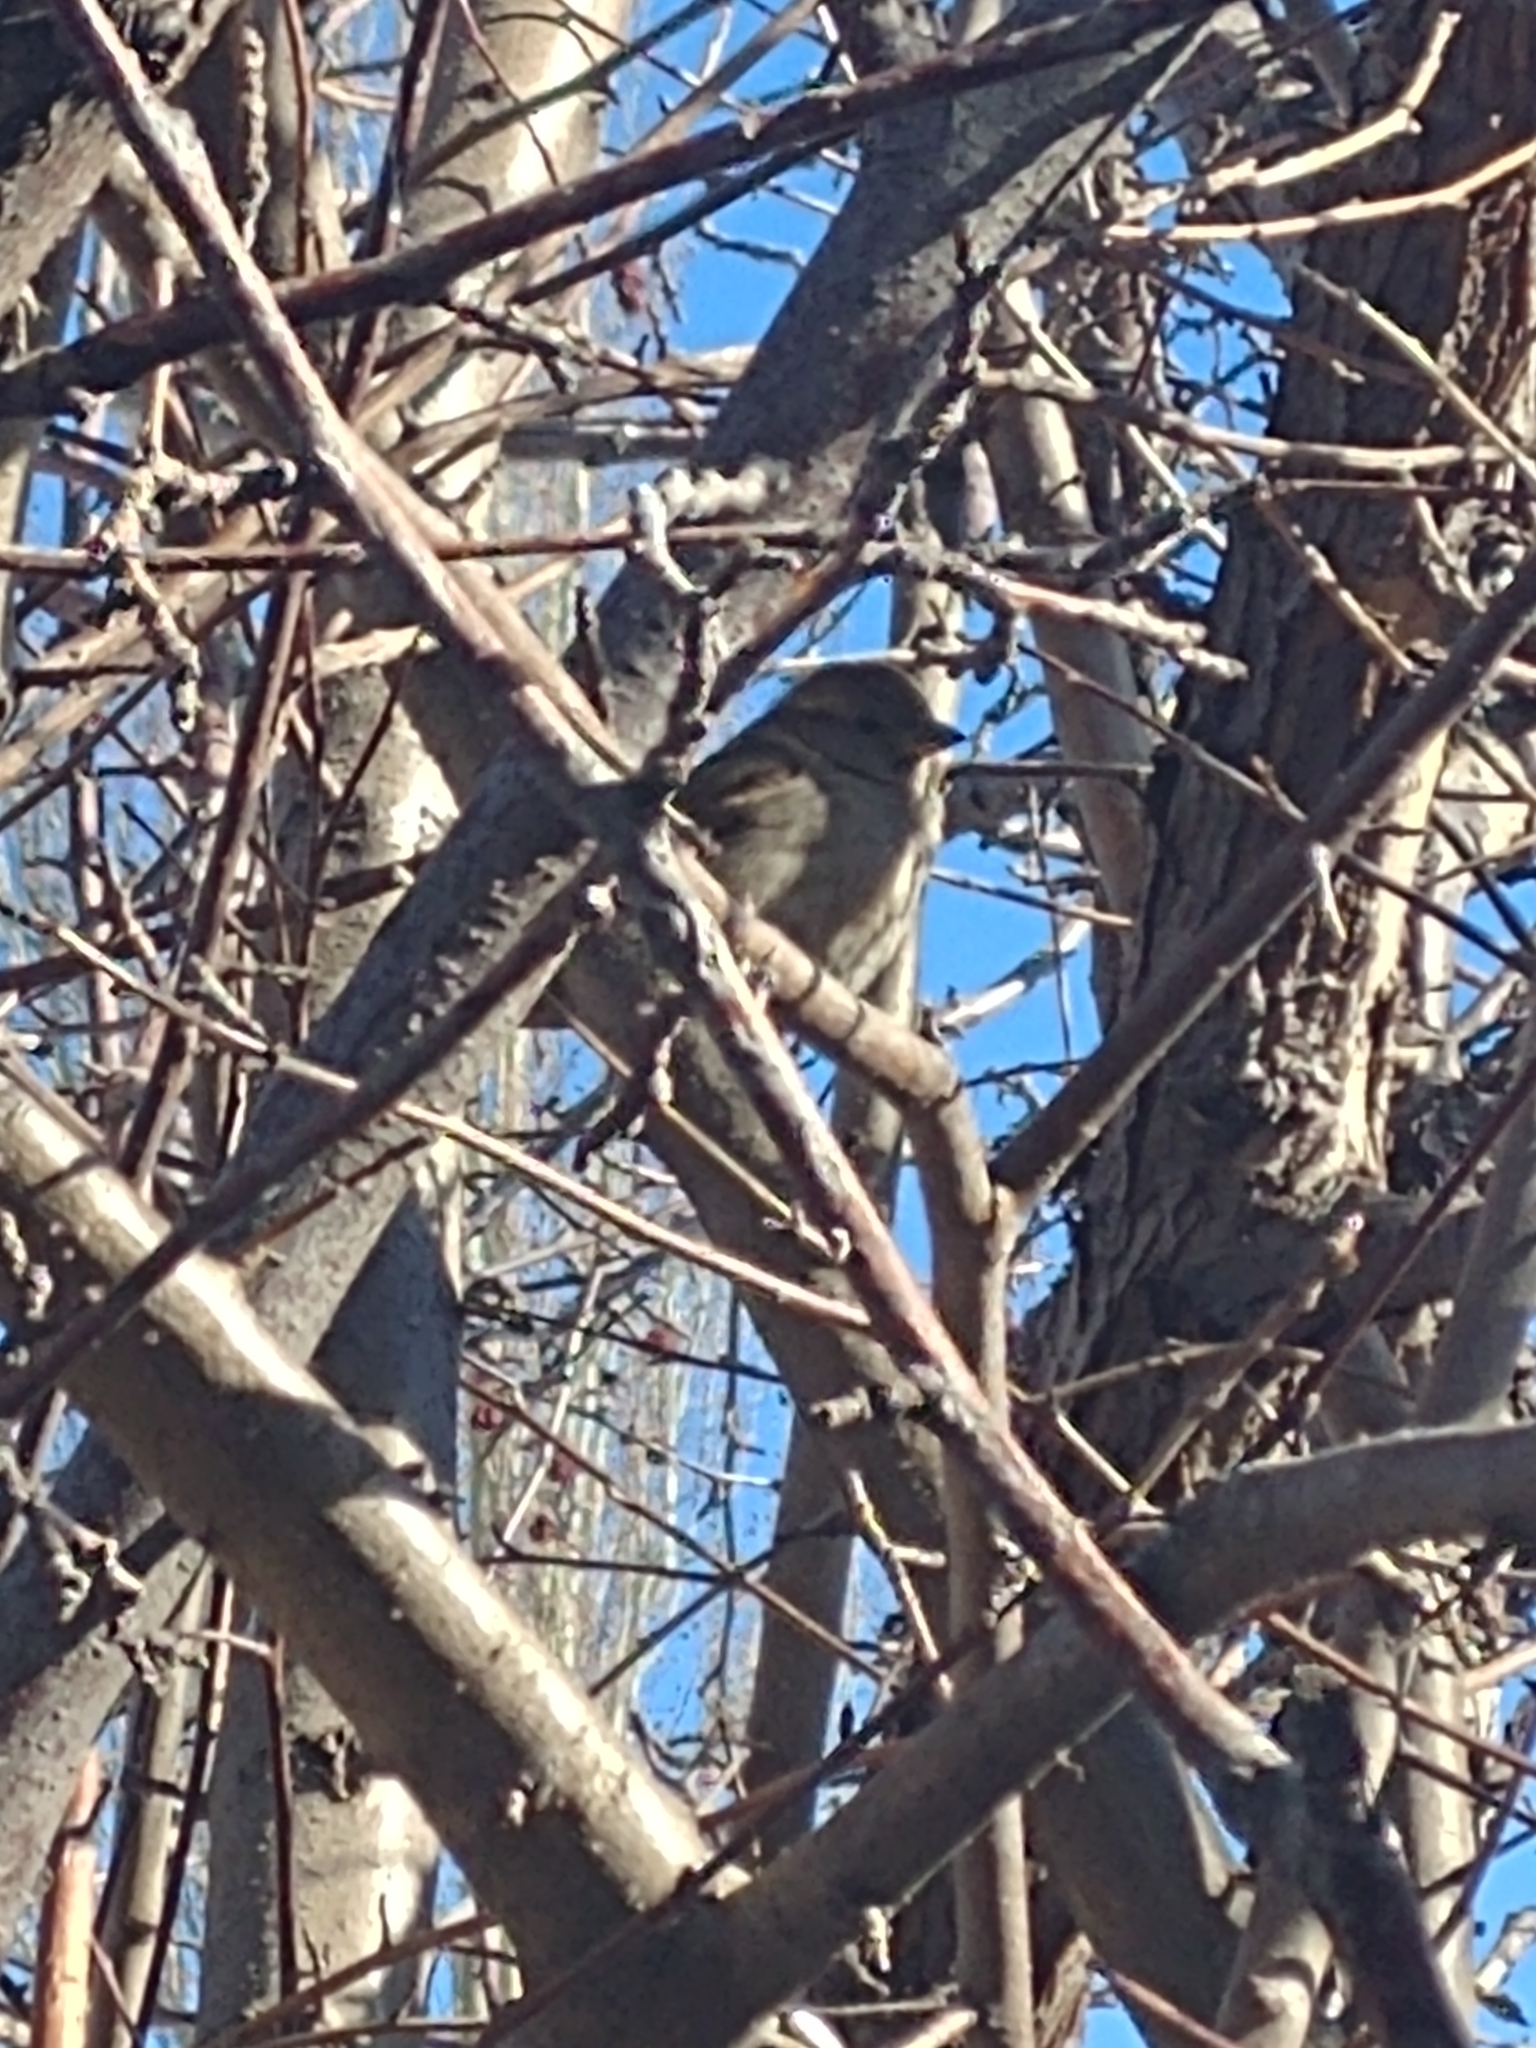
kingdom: Animalia
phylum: Chordata
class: Aves
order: Passeriformes
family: Passeridae
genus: Passer
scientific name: Passer domesticus
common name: House sparrow
